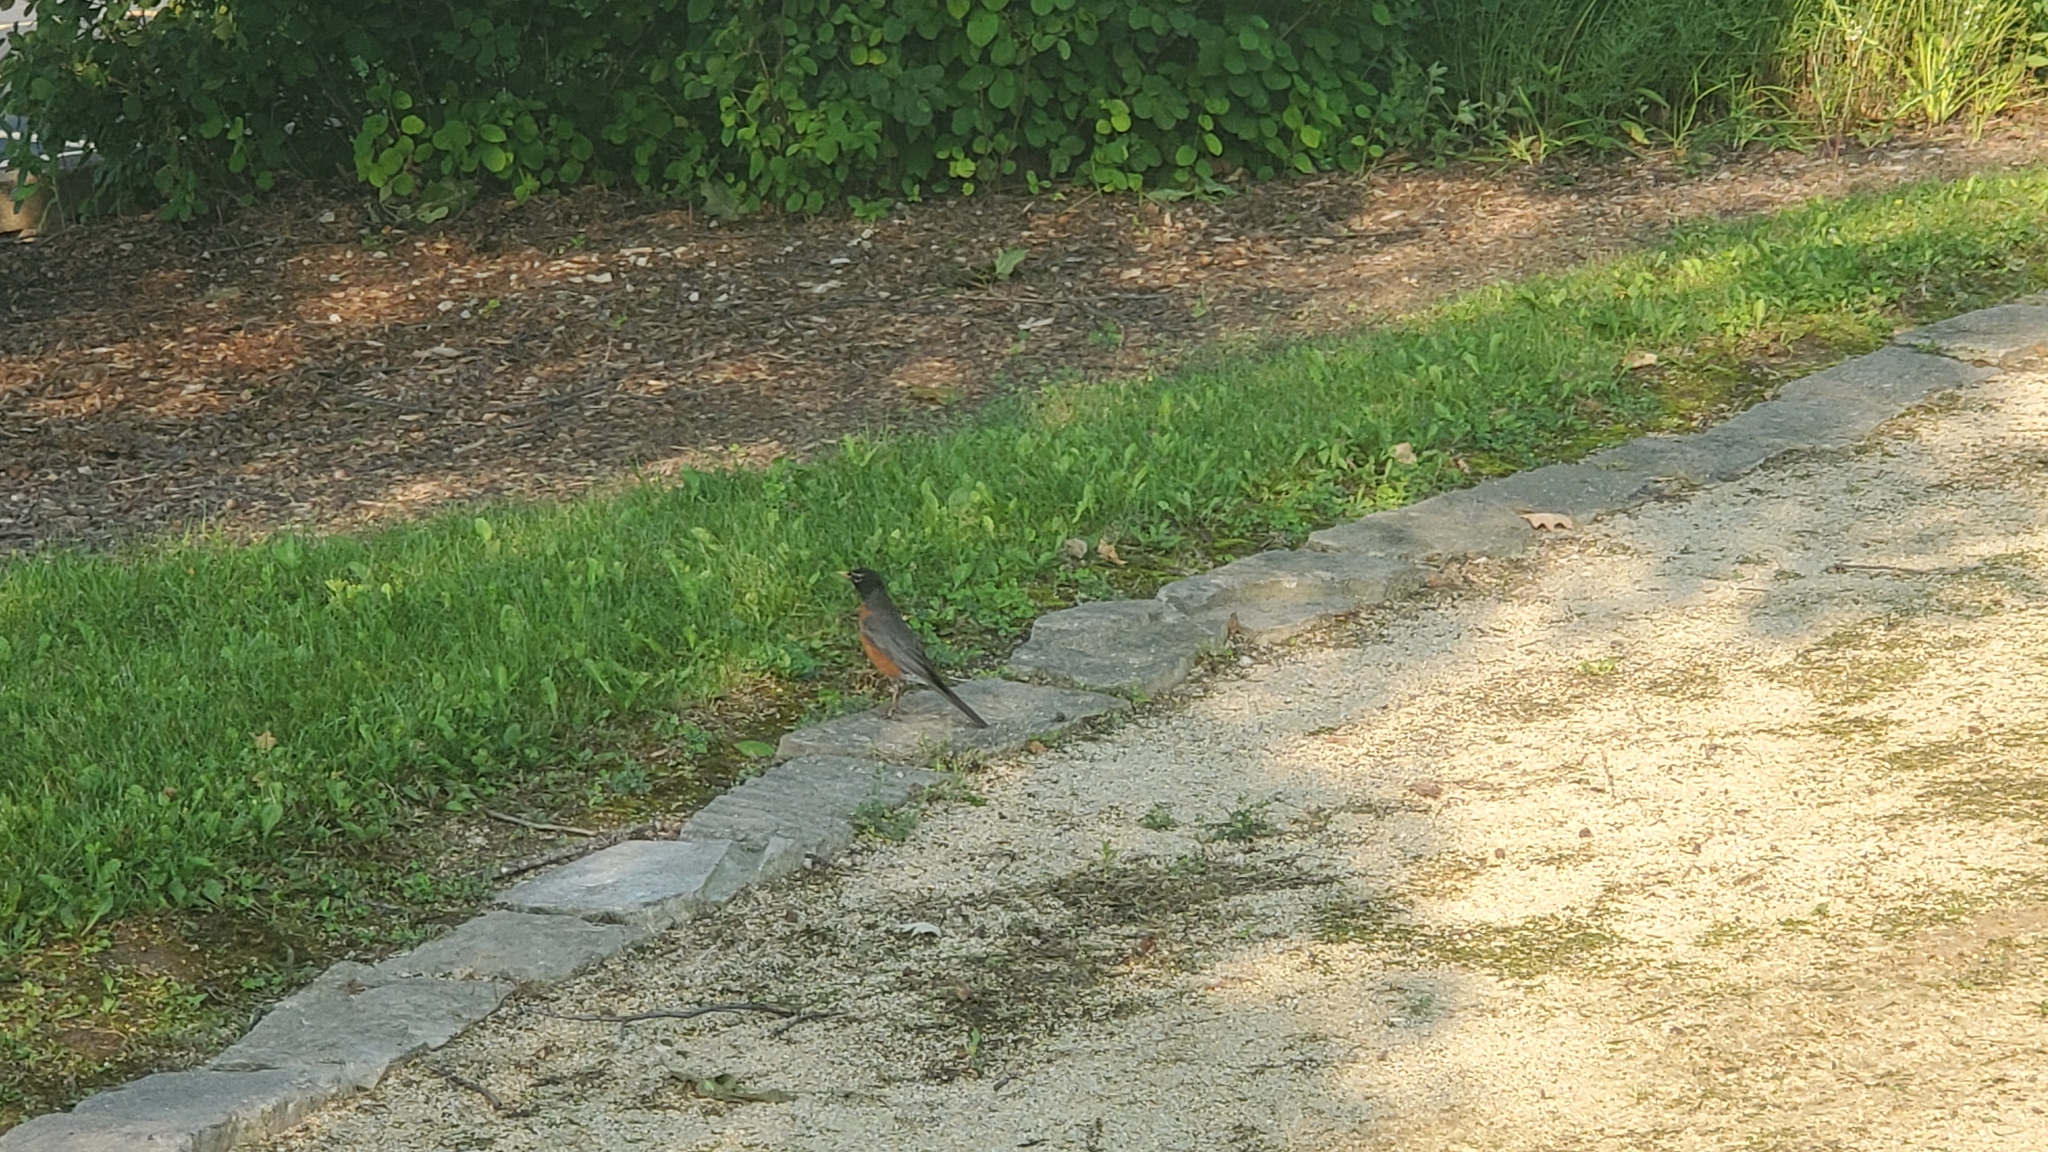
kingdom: Animalia
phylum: Chordata
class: Aves
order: Passeriformes
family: Turdidae
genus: Turdus
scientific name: Turdus migratorius
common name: American robin
